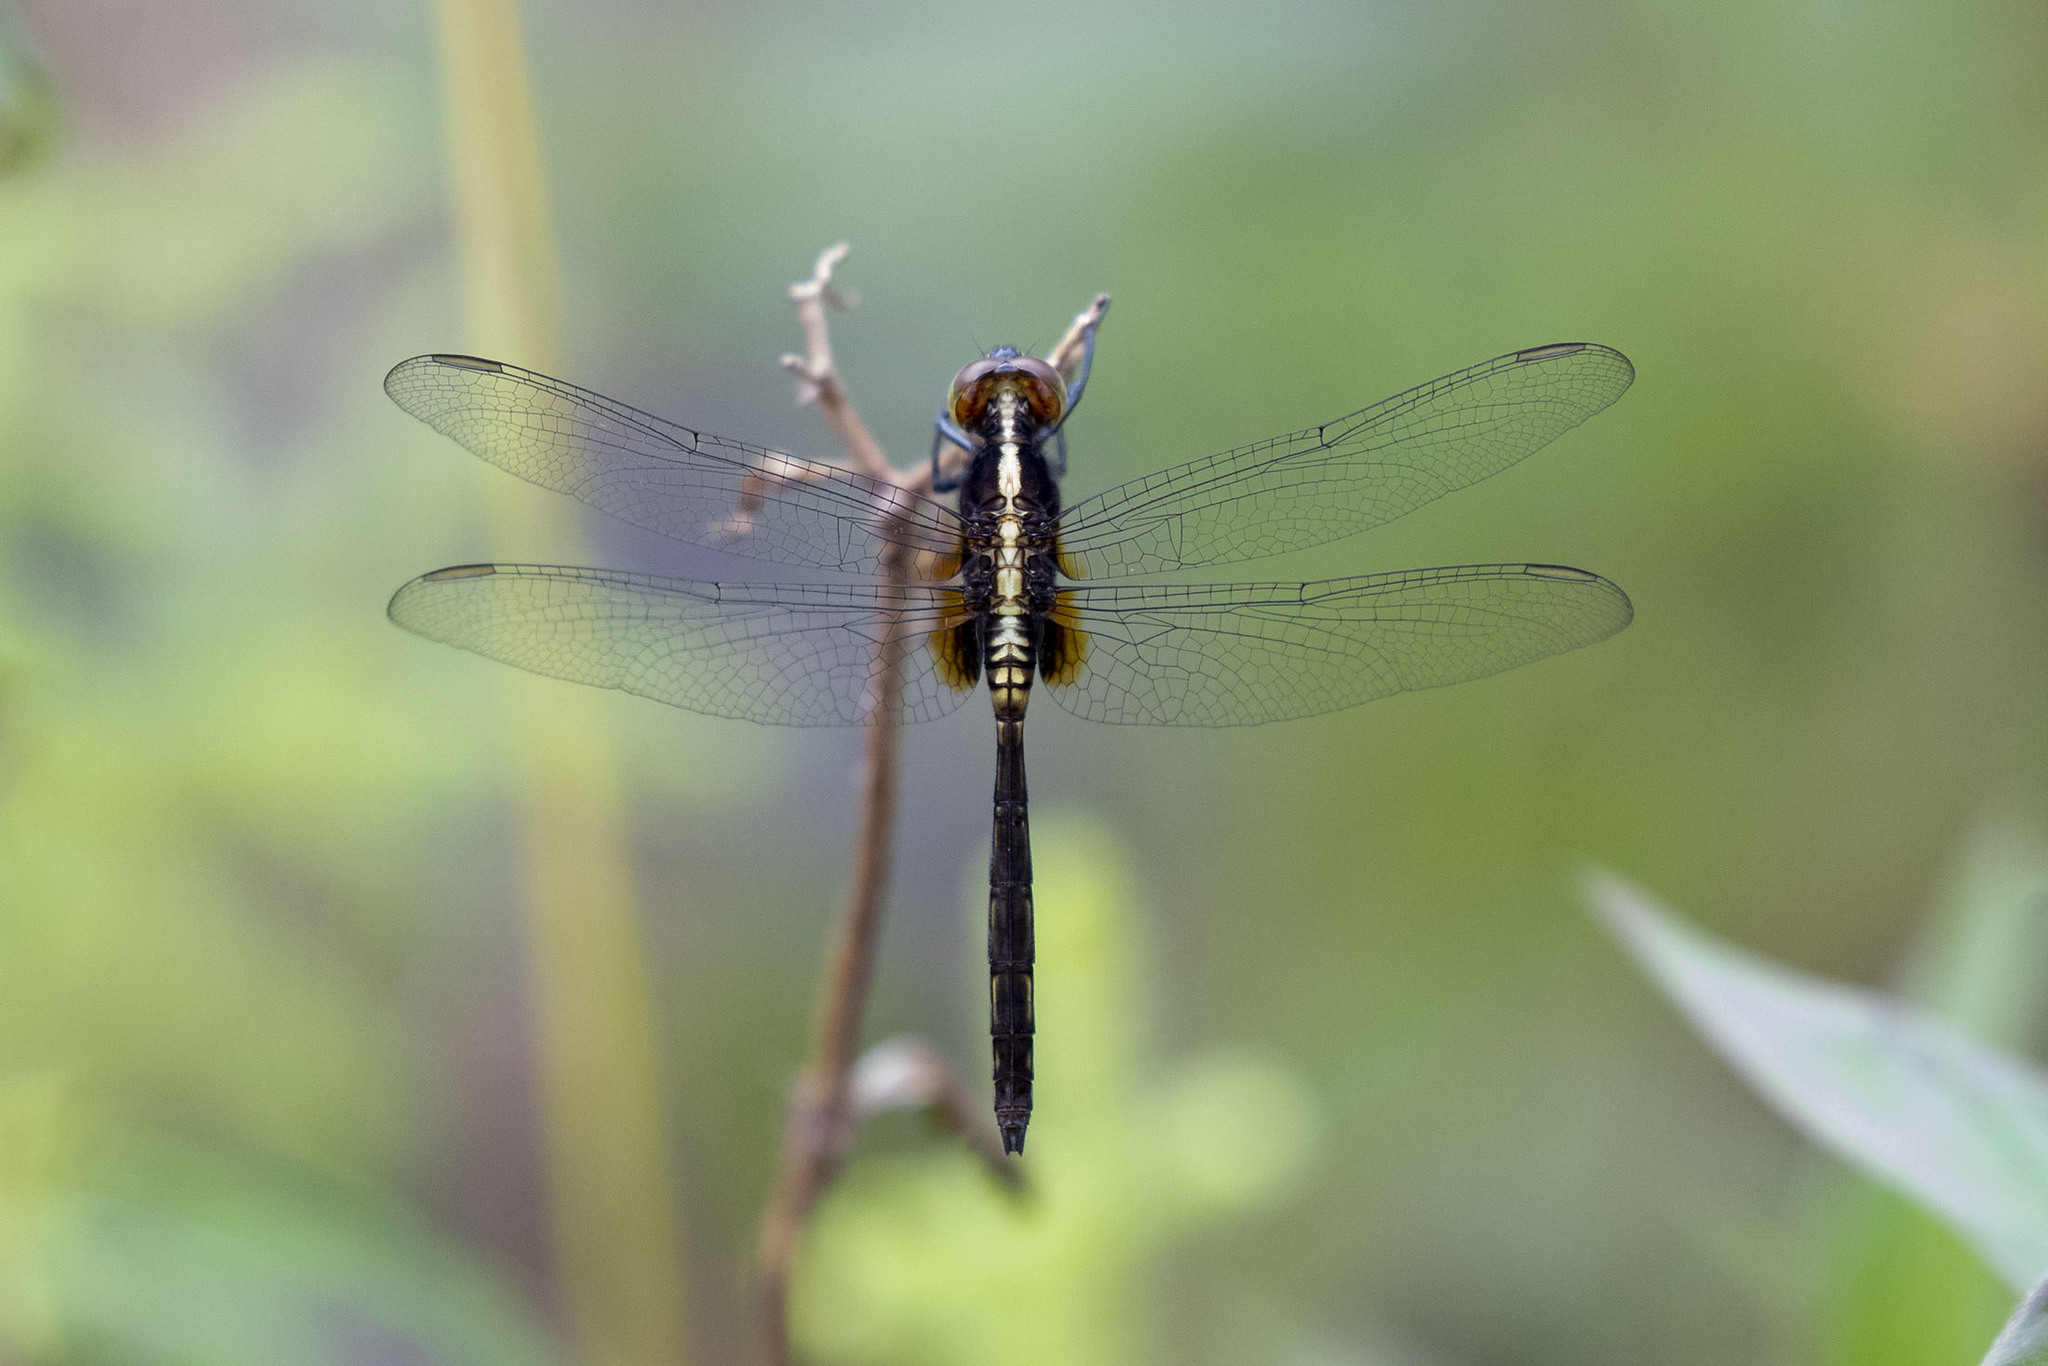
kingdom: Animalia
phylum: Arthropoda
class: Insecta
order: Odonata
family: Libellulidae
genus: Erythemis
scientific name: Erythemis credula
